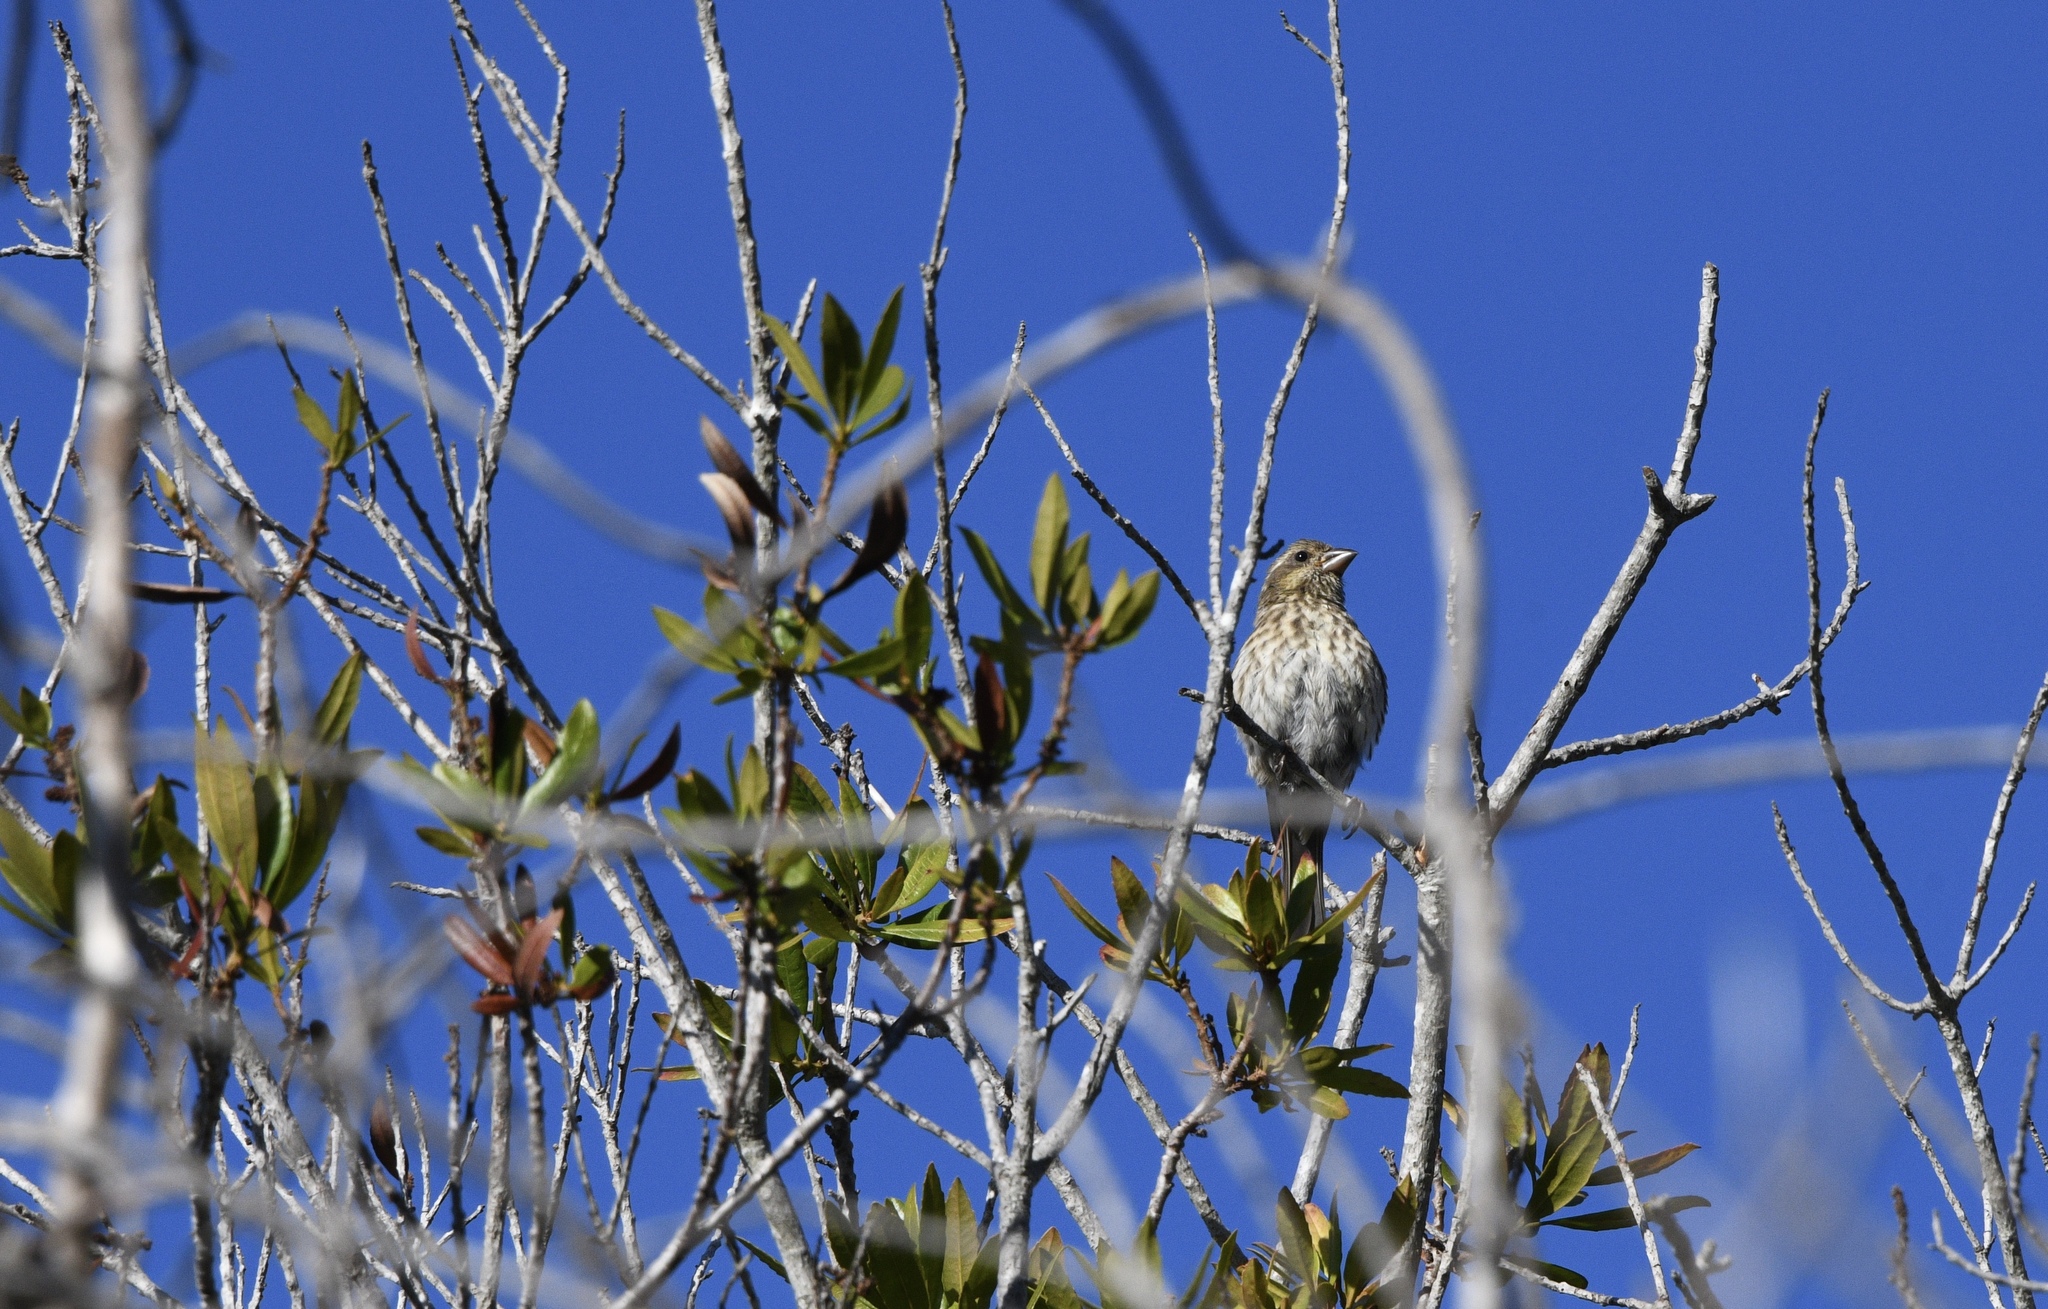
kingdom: Animalia
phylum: Chordata
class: Aves
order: Passeriformes
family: Fringillidae
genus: Haemorhous
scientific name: Haemorhous purpureus
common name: Purple finch
